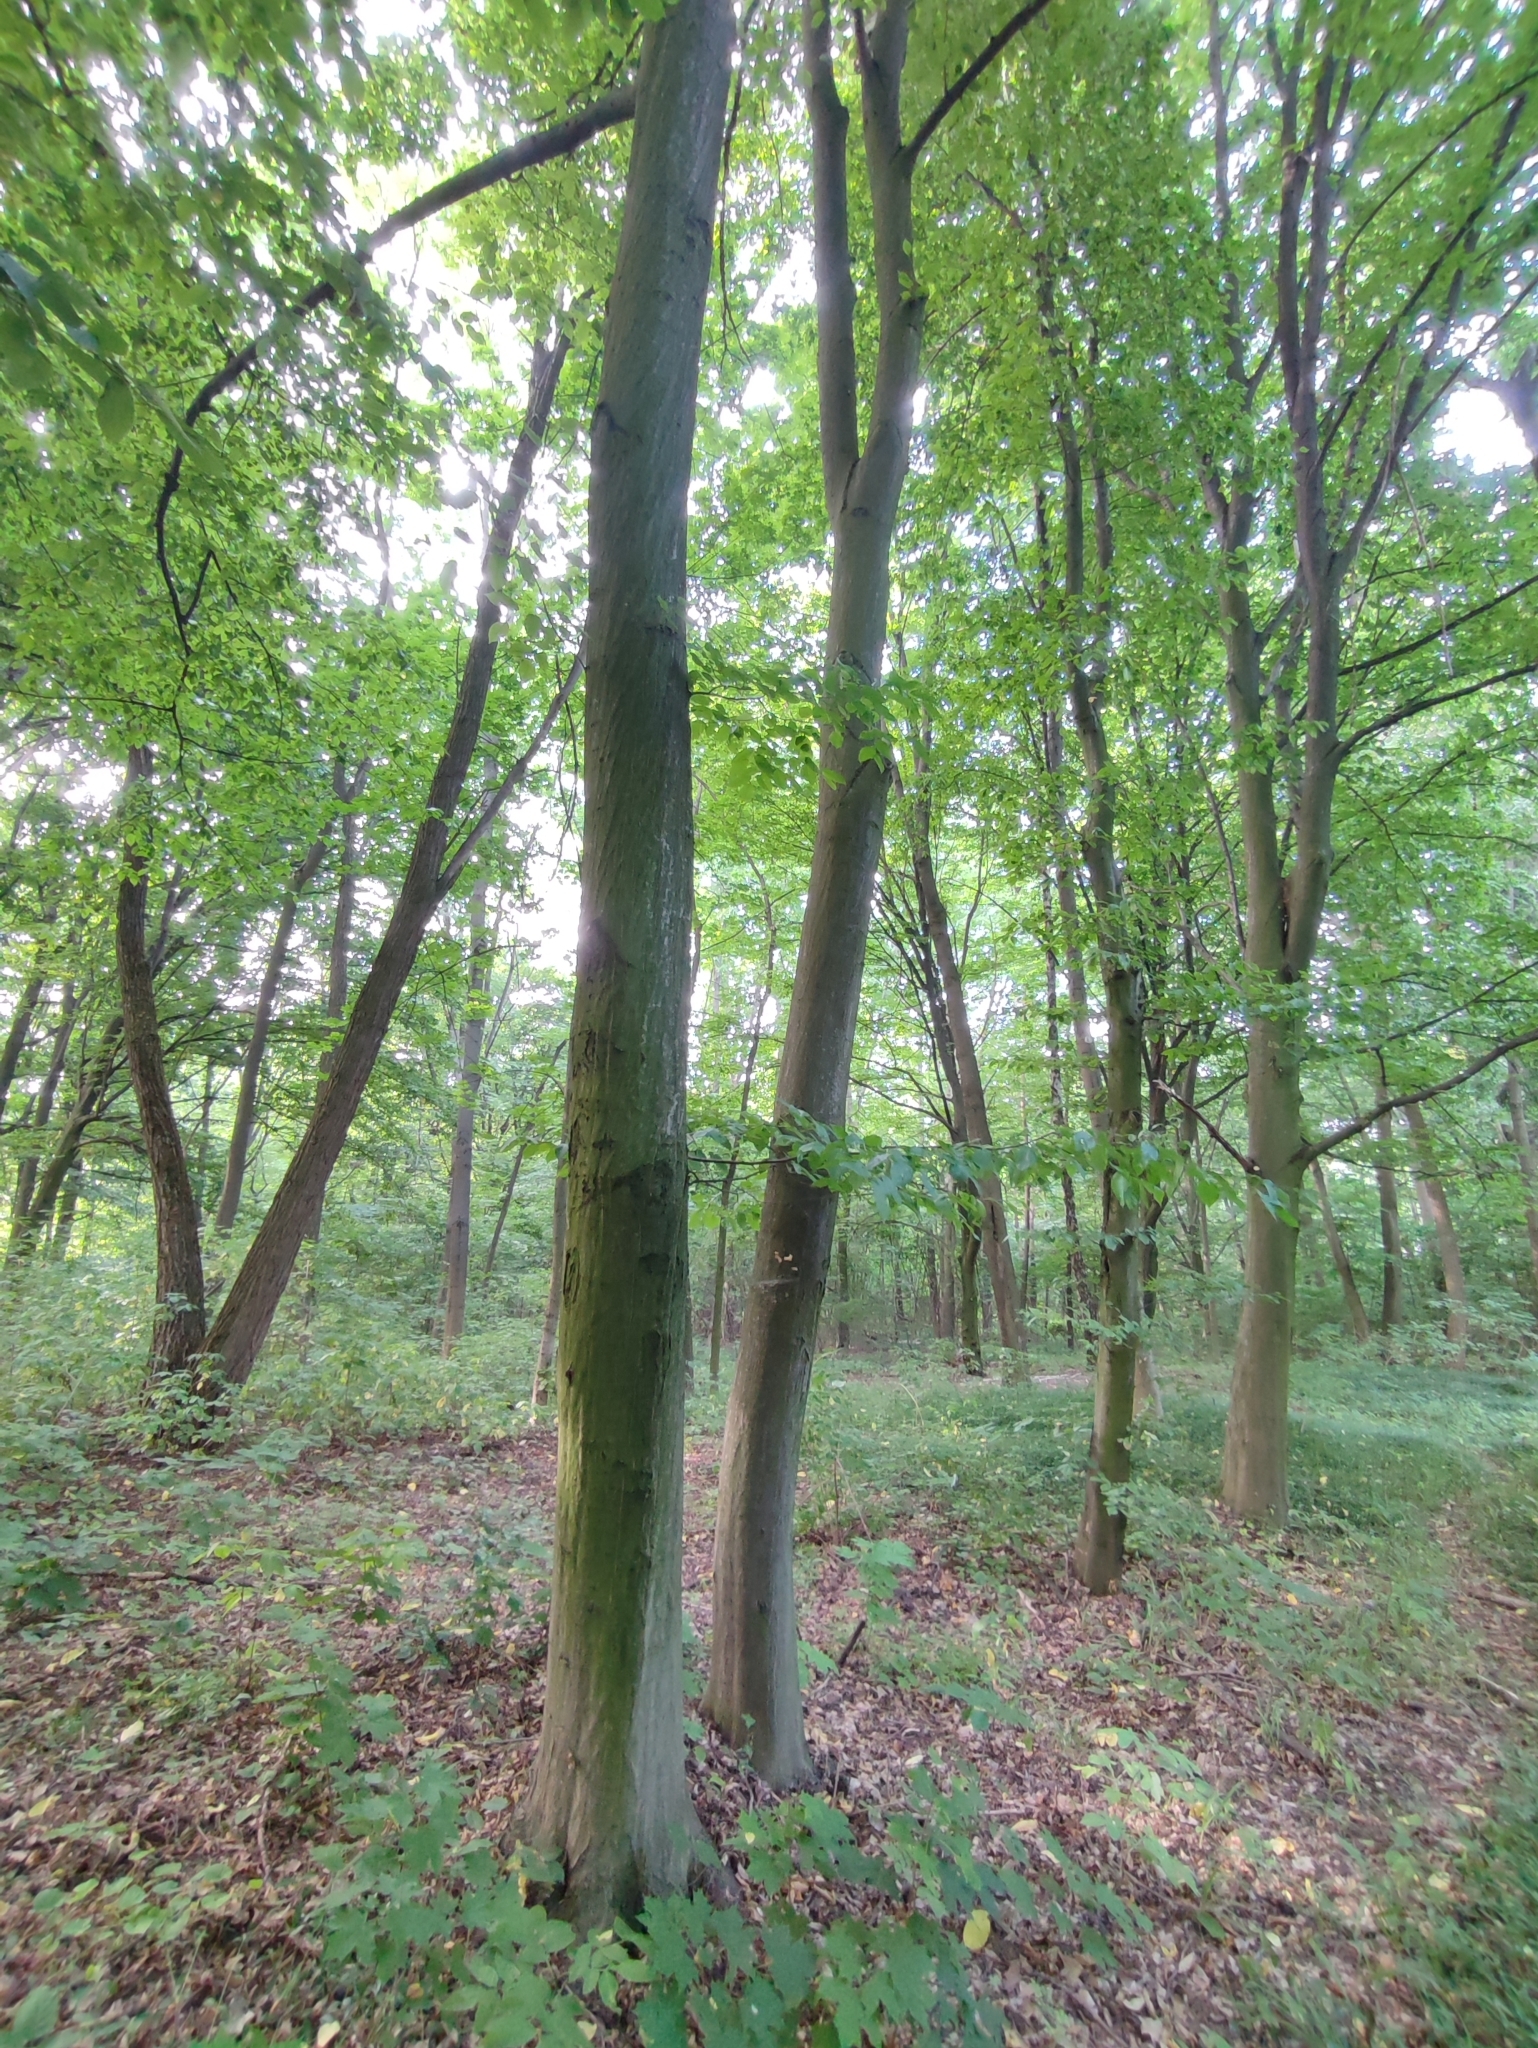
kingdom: Plantae
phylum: Tracheophyta
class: Magnoliopsida
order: Fagales
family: Betulaceae
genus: Carpinus
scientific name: Carpinus betulus
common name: Hornbeam
